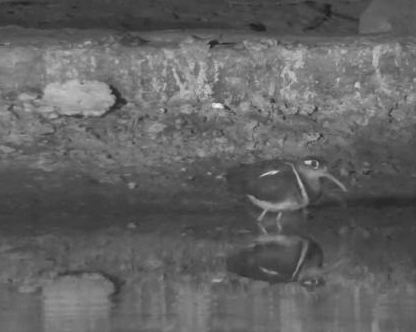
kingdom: Animalia
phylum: Chordata
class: Aves
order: Charadriiformes
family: Rostratulidae
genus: Rostratula
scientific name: Rostratula benghalensis
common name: Greater painted-snipe
